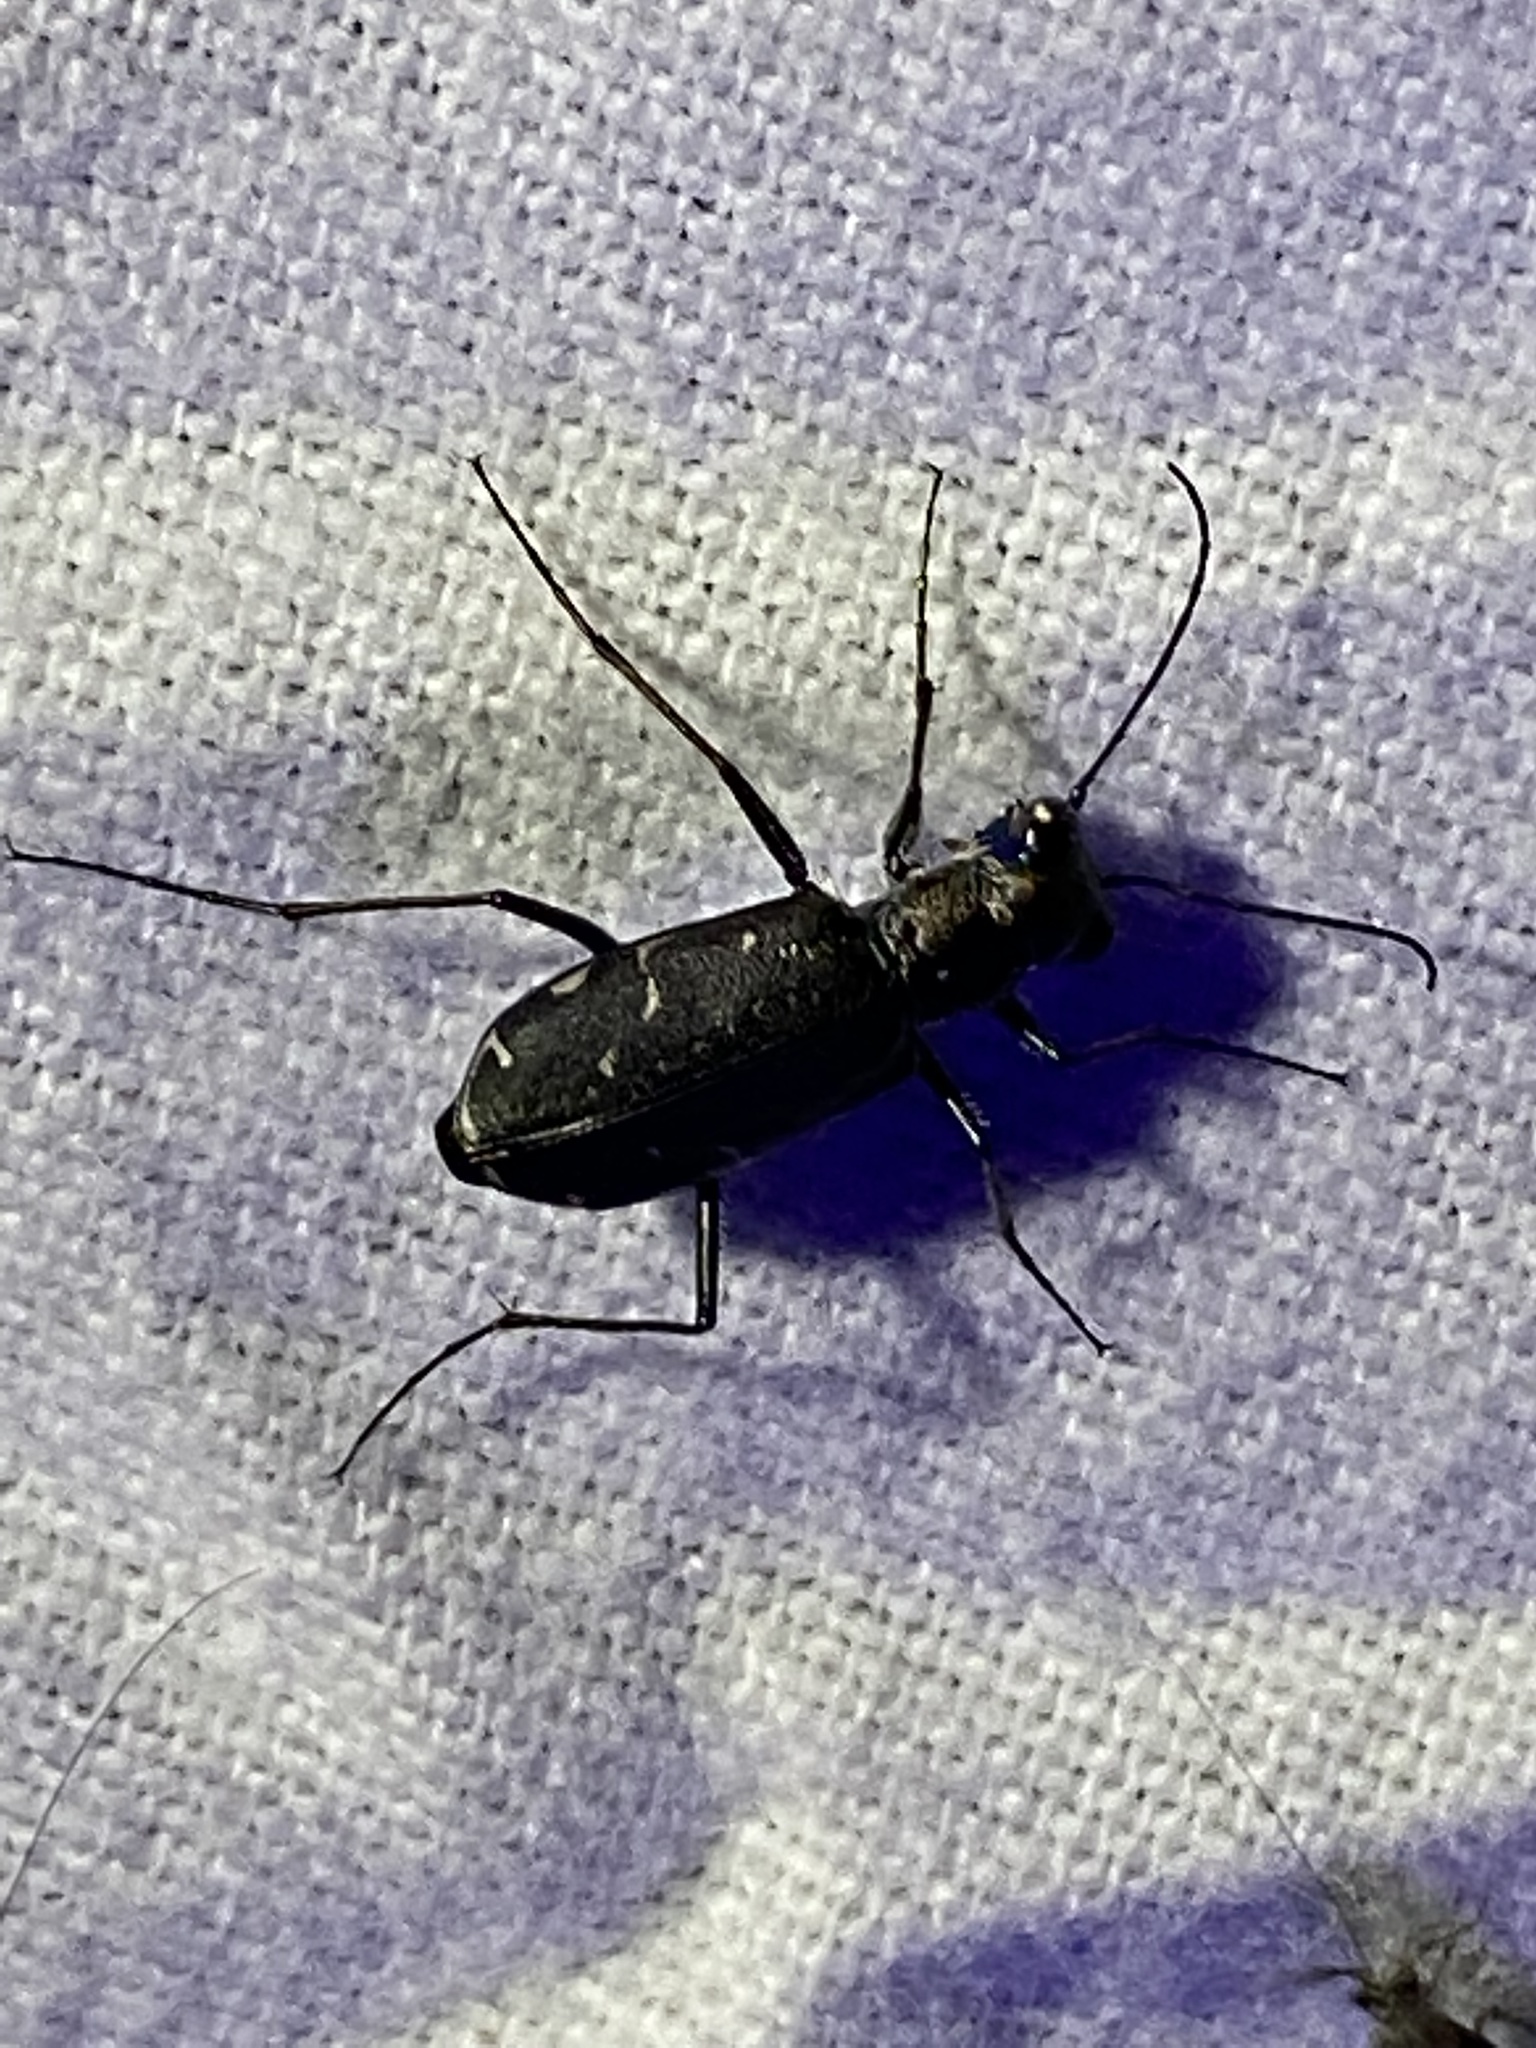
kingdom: Animalia
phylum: Arthropoda
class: Insecta
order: Coleoptera
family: Carabidae
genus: Cicindela
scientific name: Cicindela punctulata
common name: Punctured tiger beetle
